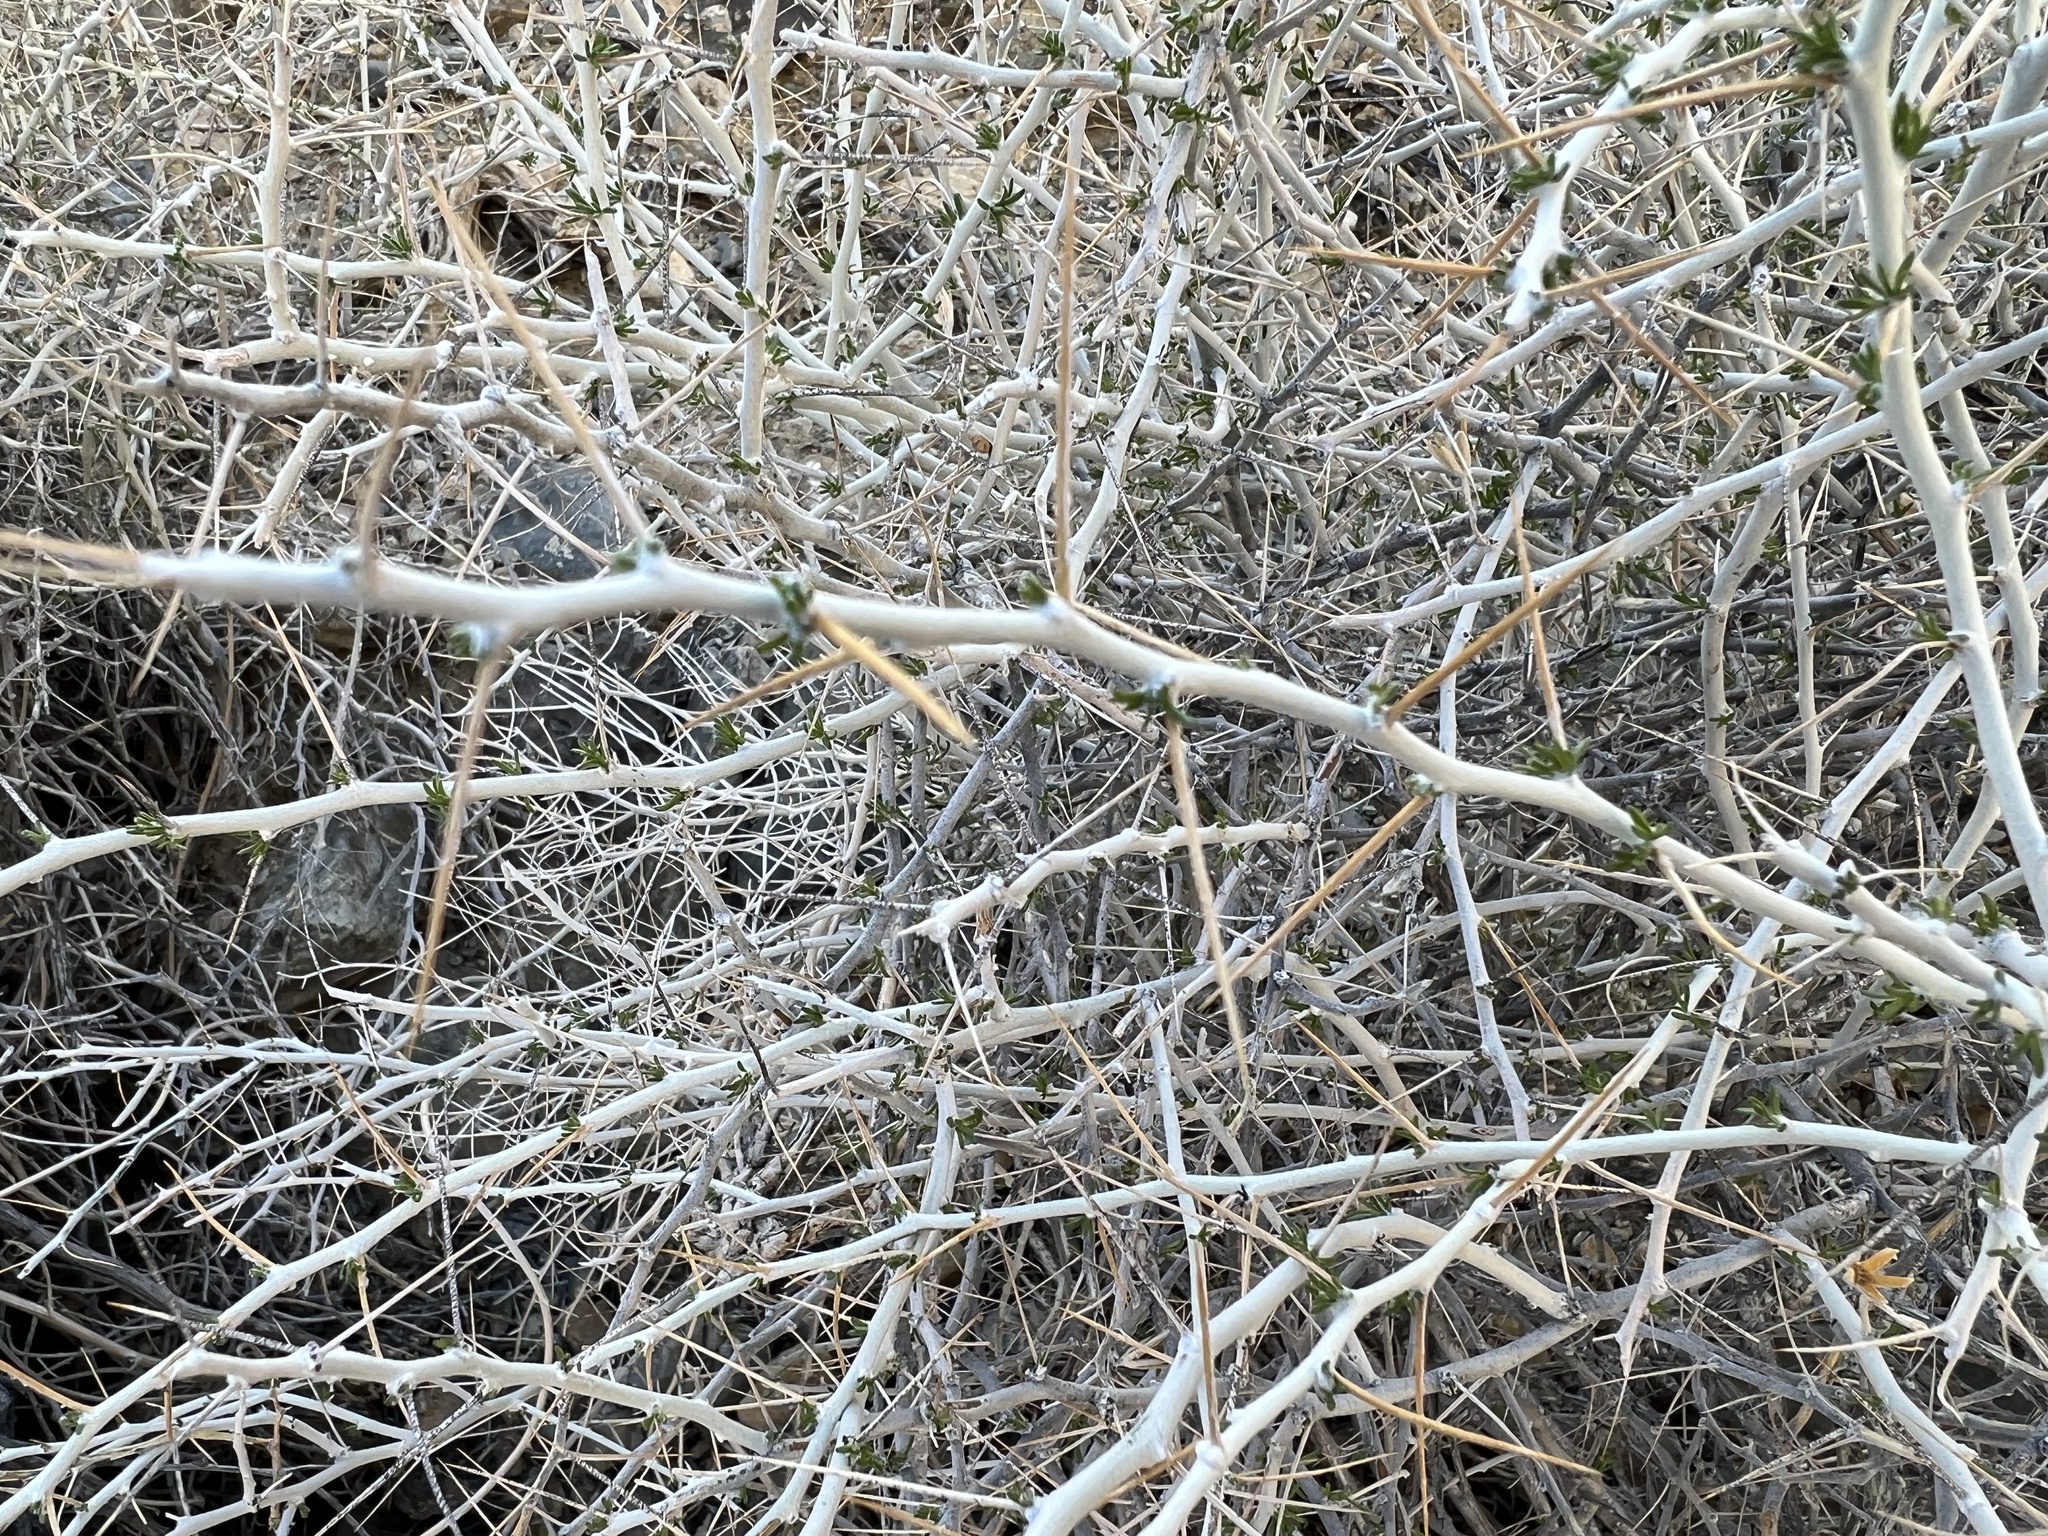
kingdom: Plantae
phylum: Tracheophyta
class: Magnoliopsida
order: Asterales
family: Asteraceae
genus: Tetradymia
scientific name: Tetradymia axillaris
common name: Long-spine horsebrush
